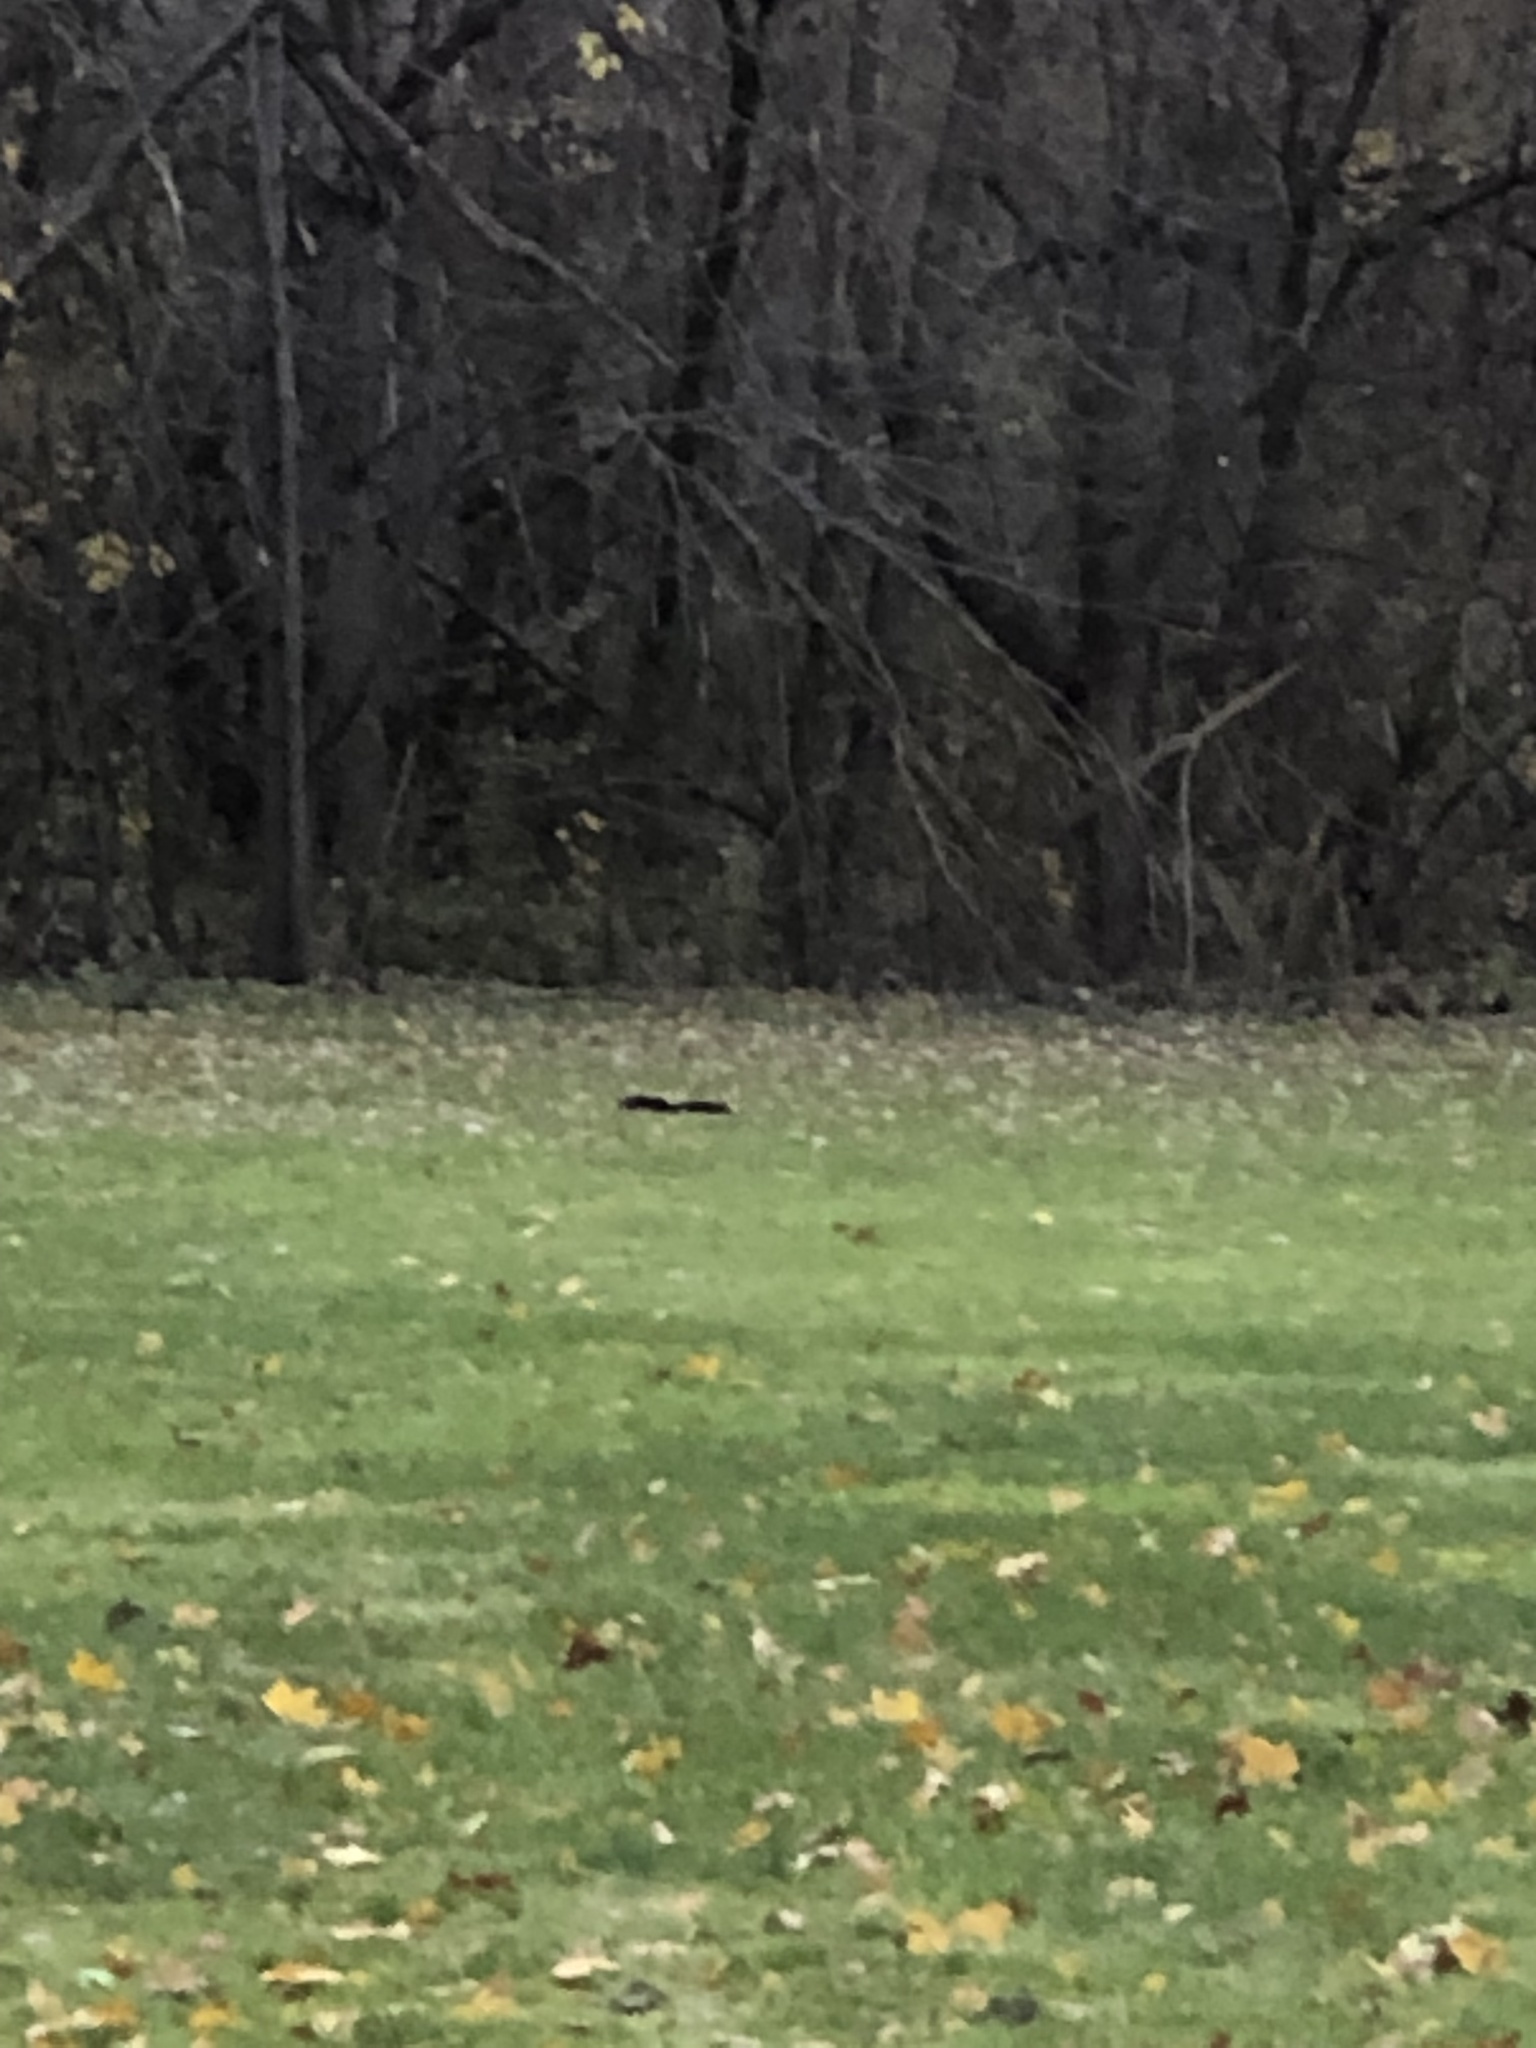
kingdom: Animalia
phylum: Chordata
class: Mammalia
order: Rodentia
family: Sciuridae
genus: Sciurus
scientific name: Sciurus carolinensis
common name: Eastern gray squirrel
